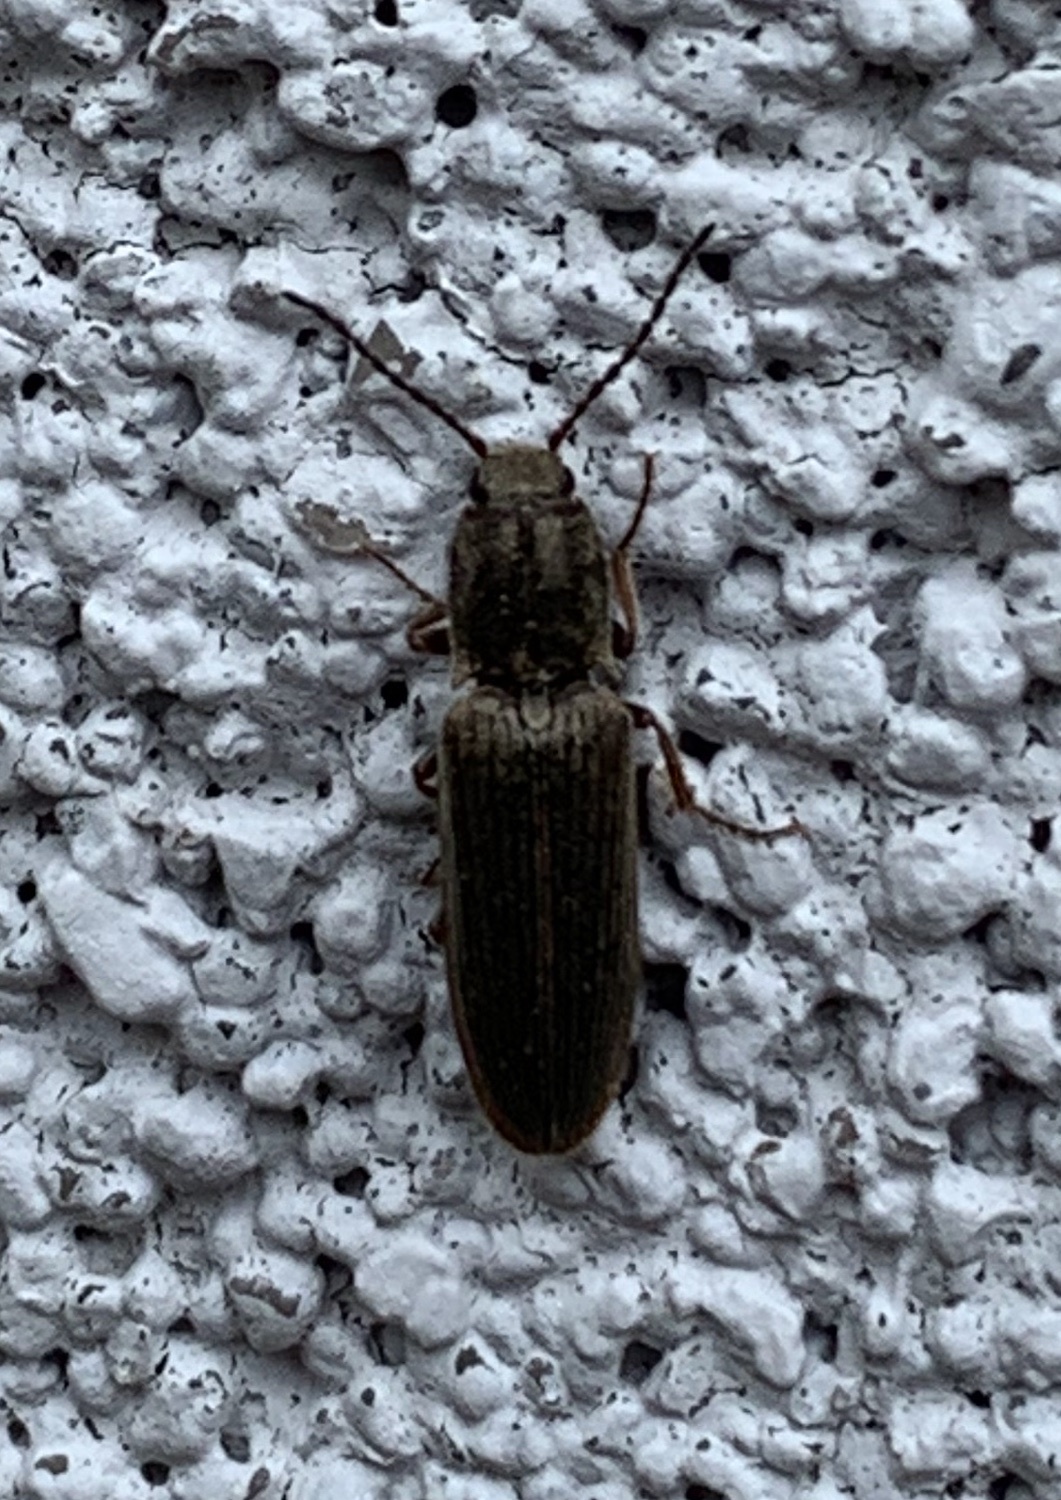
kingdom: Animalia
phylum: Arthropoda
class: Insecta
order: Coleoptera
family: Elateridae
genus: Sylvanelater
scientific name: Sylvanelater cylindriformis
